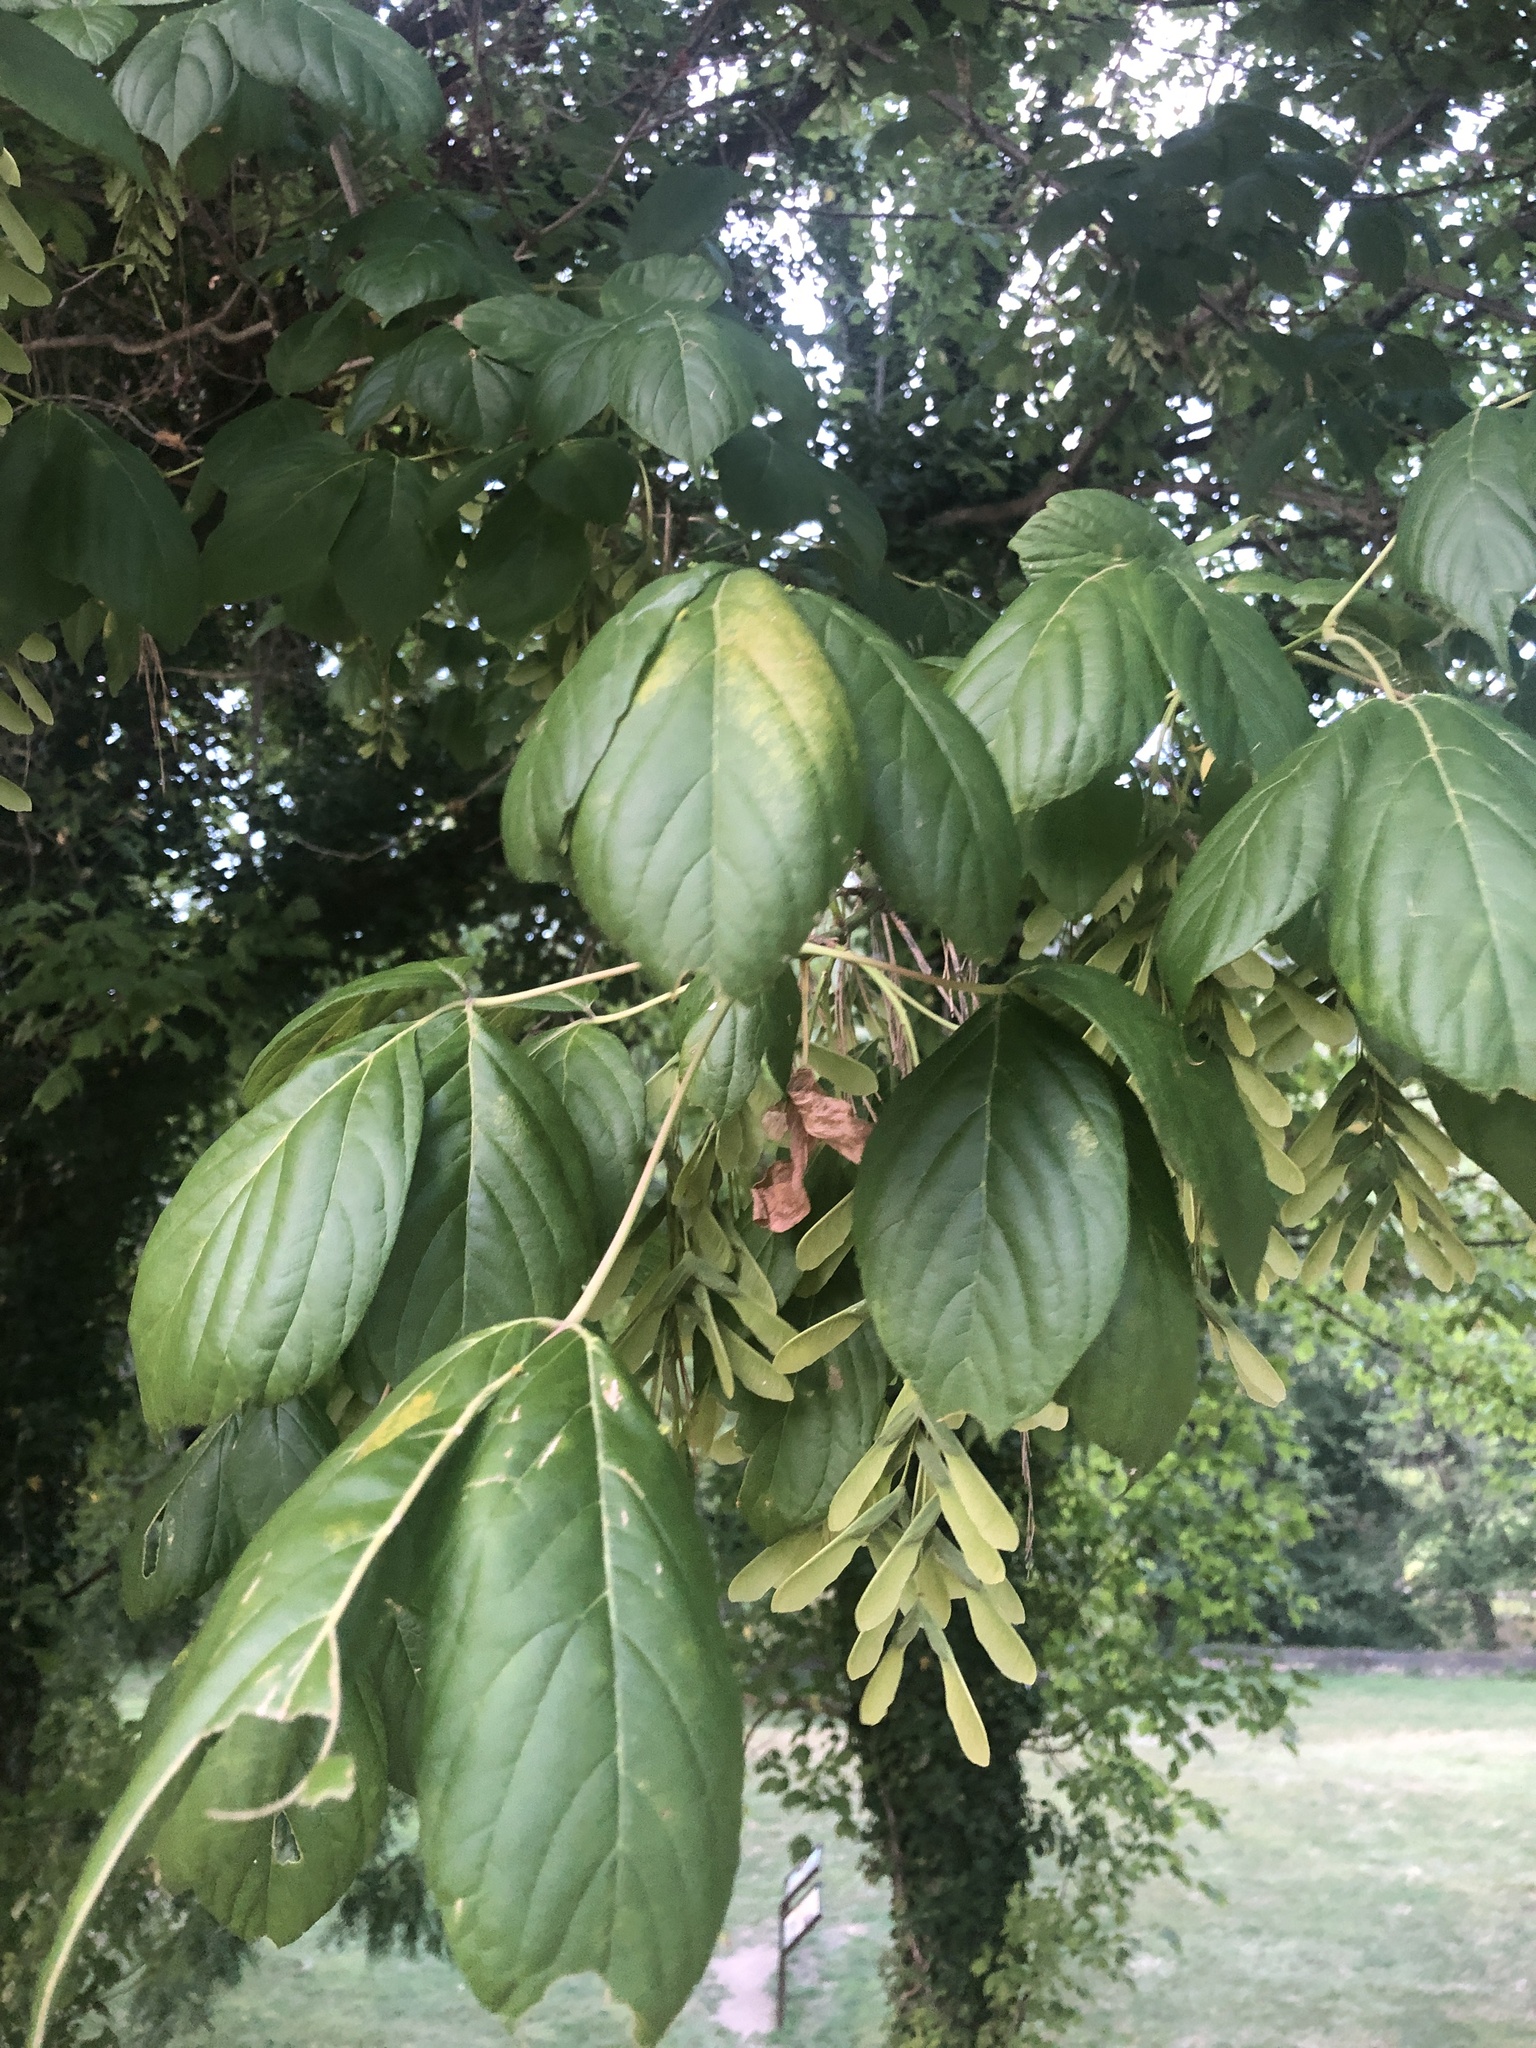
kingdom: Plantae
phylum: Tracheophyta
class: Magnoliopsida
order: Sapindales
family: Sapindaceae
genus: Acer
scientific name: Acer negundo
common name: Ashleaf maple
